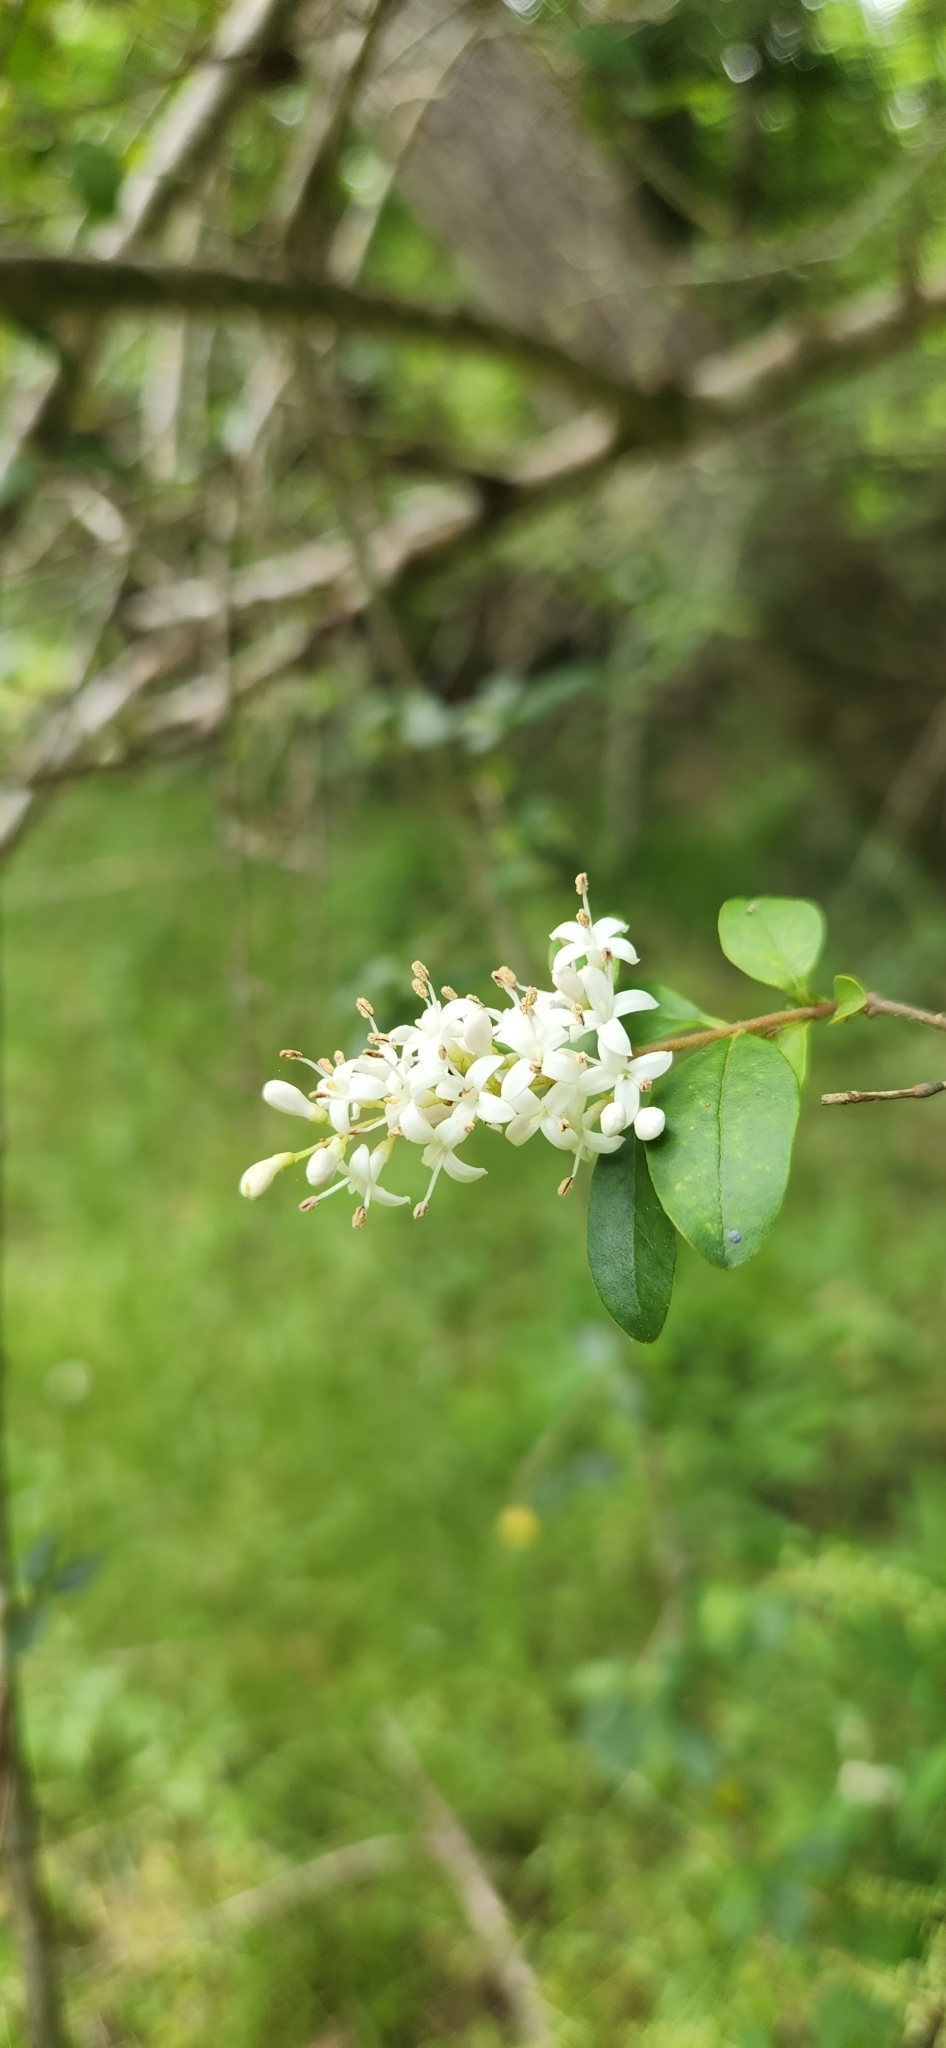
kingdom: Plantae
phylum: Tracheophyta
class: Magnoliopsida
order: Lamiales
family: Oleaceae
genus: Ligustrum
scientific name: Ligustrum sinense
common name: Chinese privet
